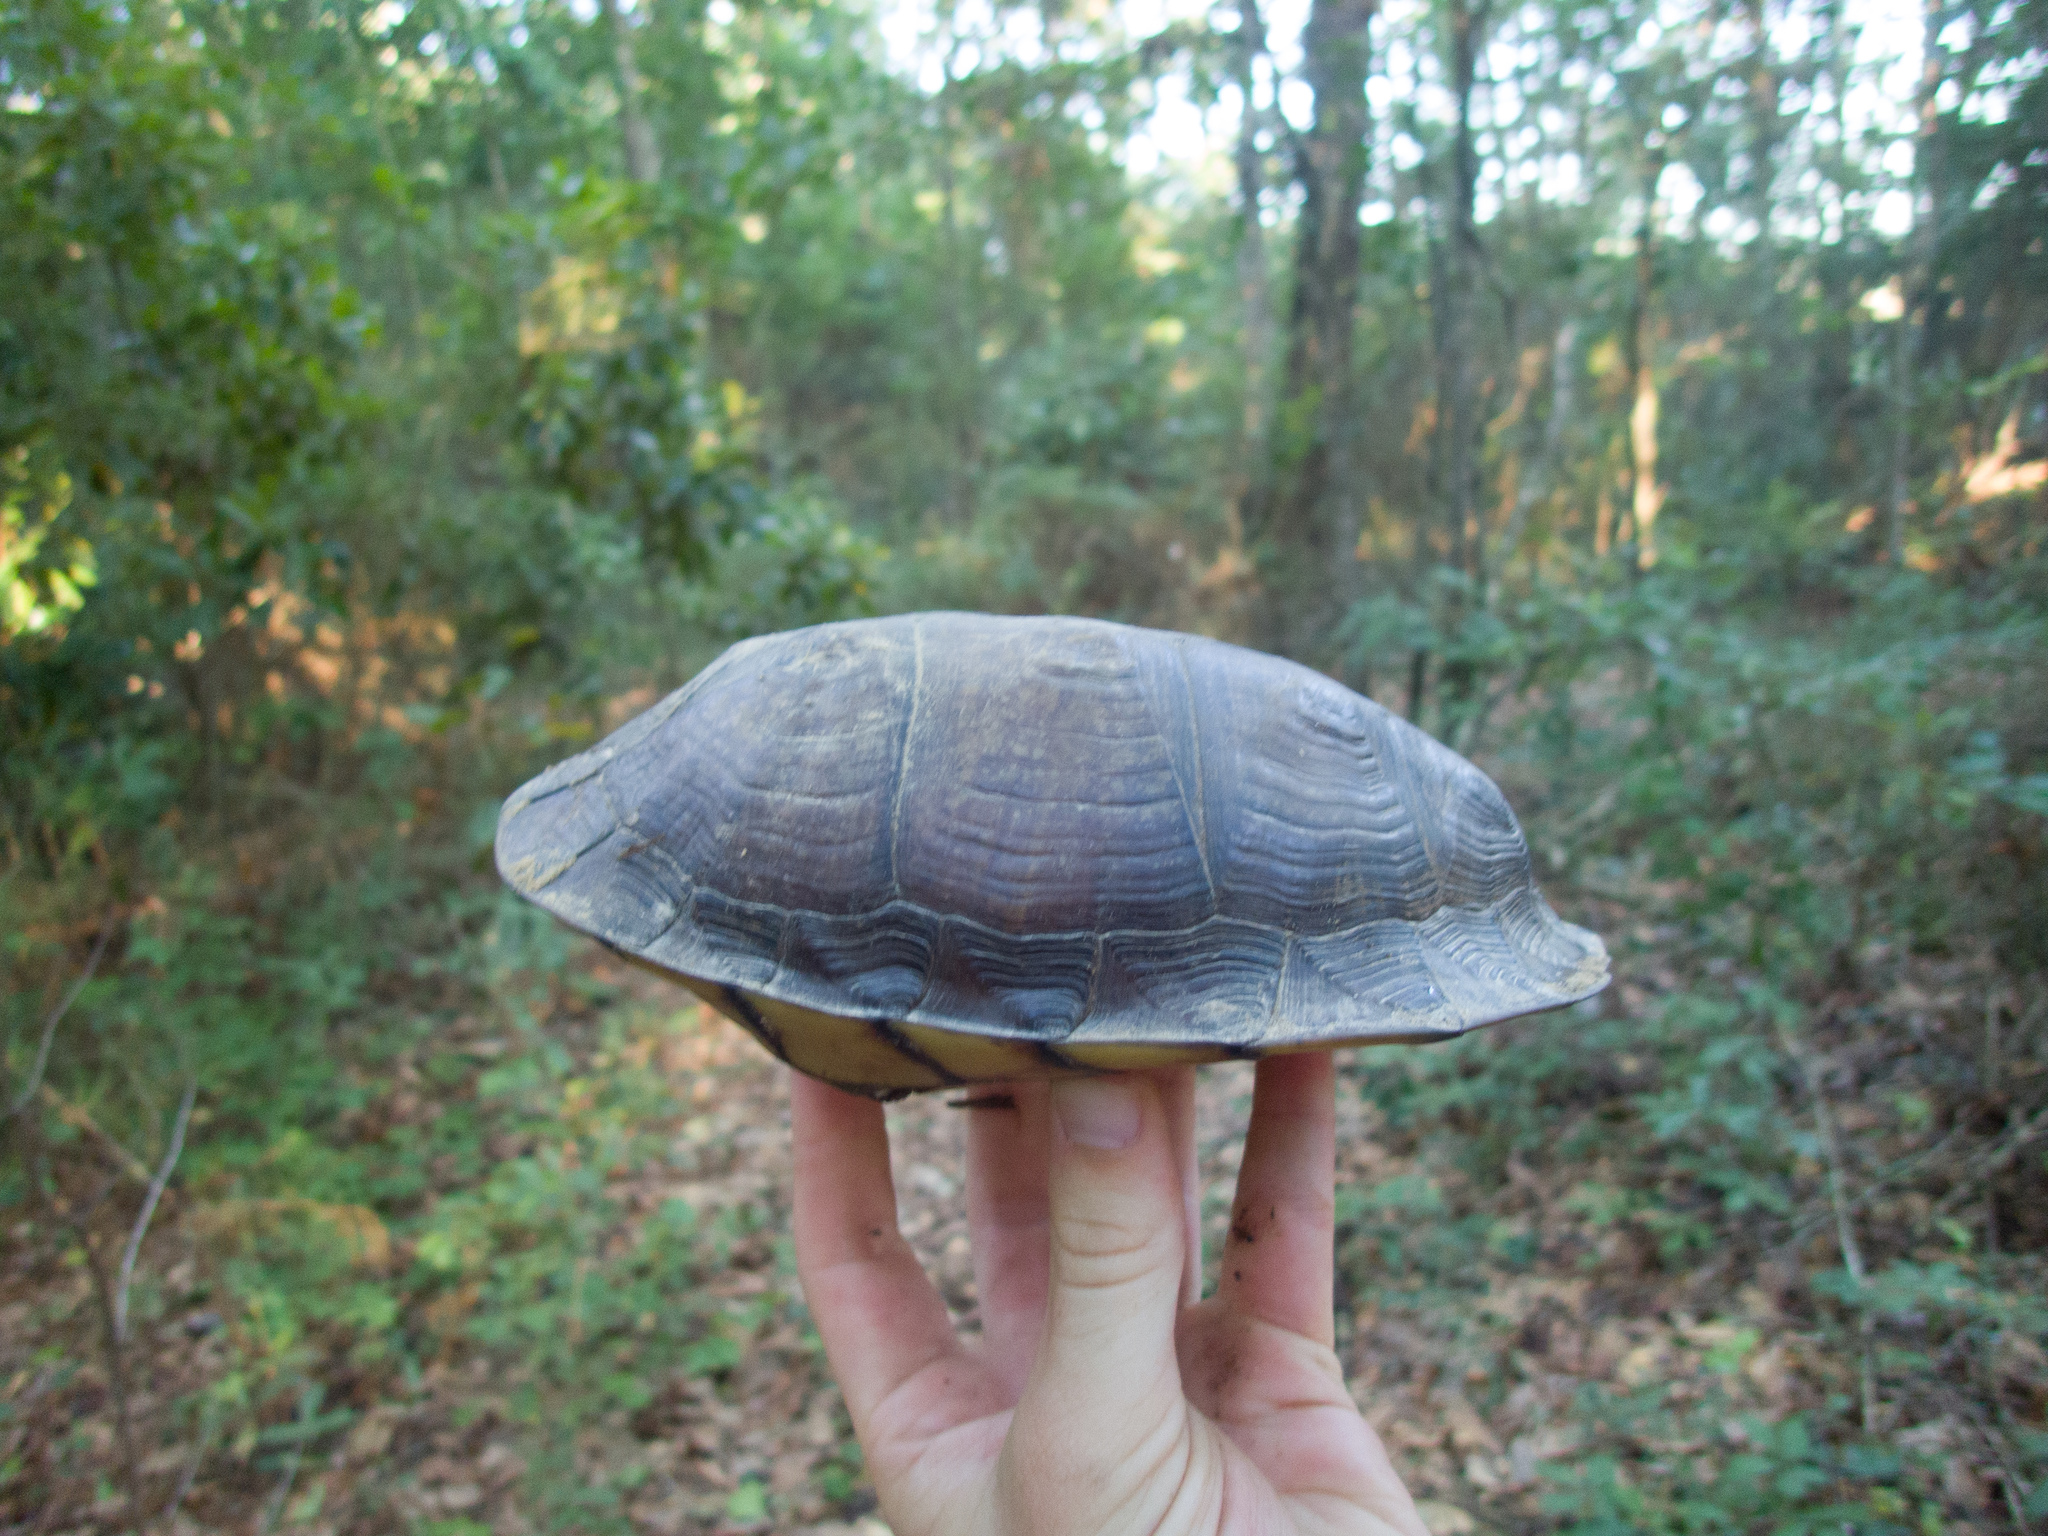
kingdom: Animalia
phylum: Chordata
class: Testudines
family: Emydidae
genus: Terrapene
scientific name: Terrapene carolina
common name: Common box turtle
